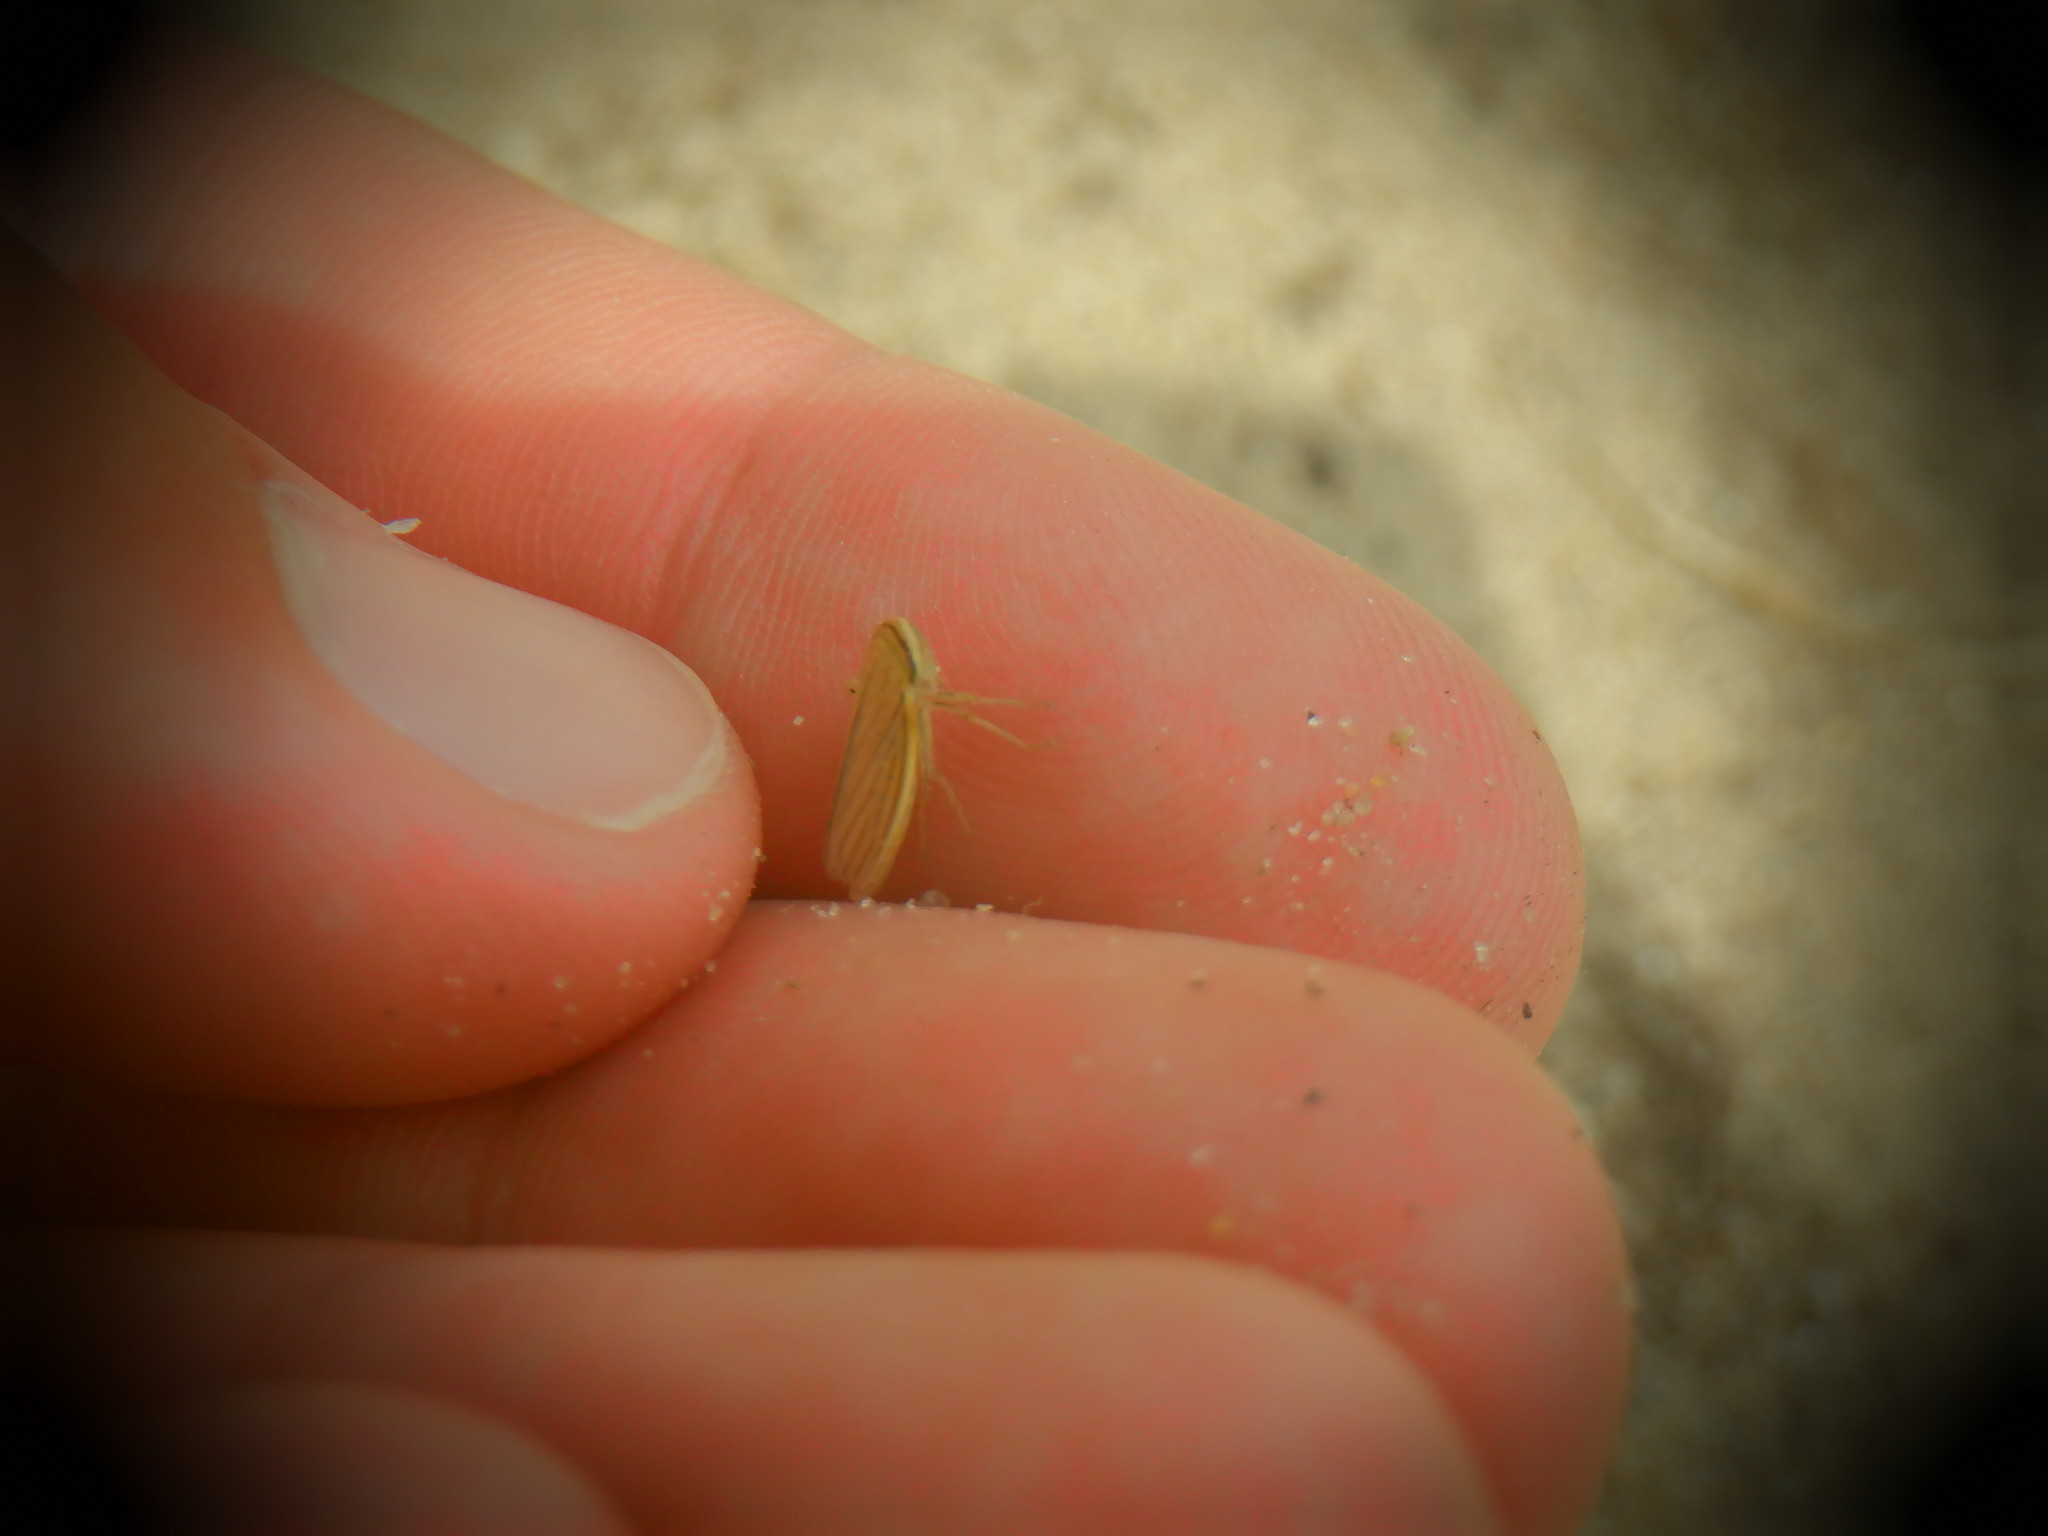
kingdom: Animalia
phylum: Arthropoda
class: Insecta
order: Hemiptera
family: Cicadellidae
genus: Athysanus
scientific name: Athysanus argentarius
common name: Silver leafhopper
